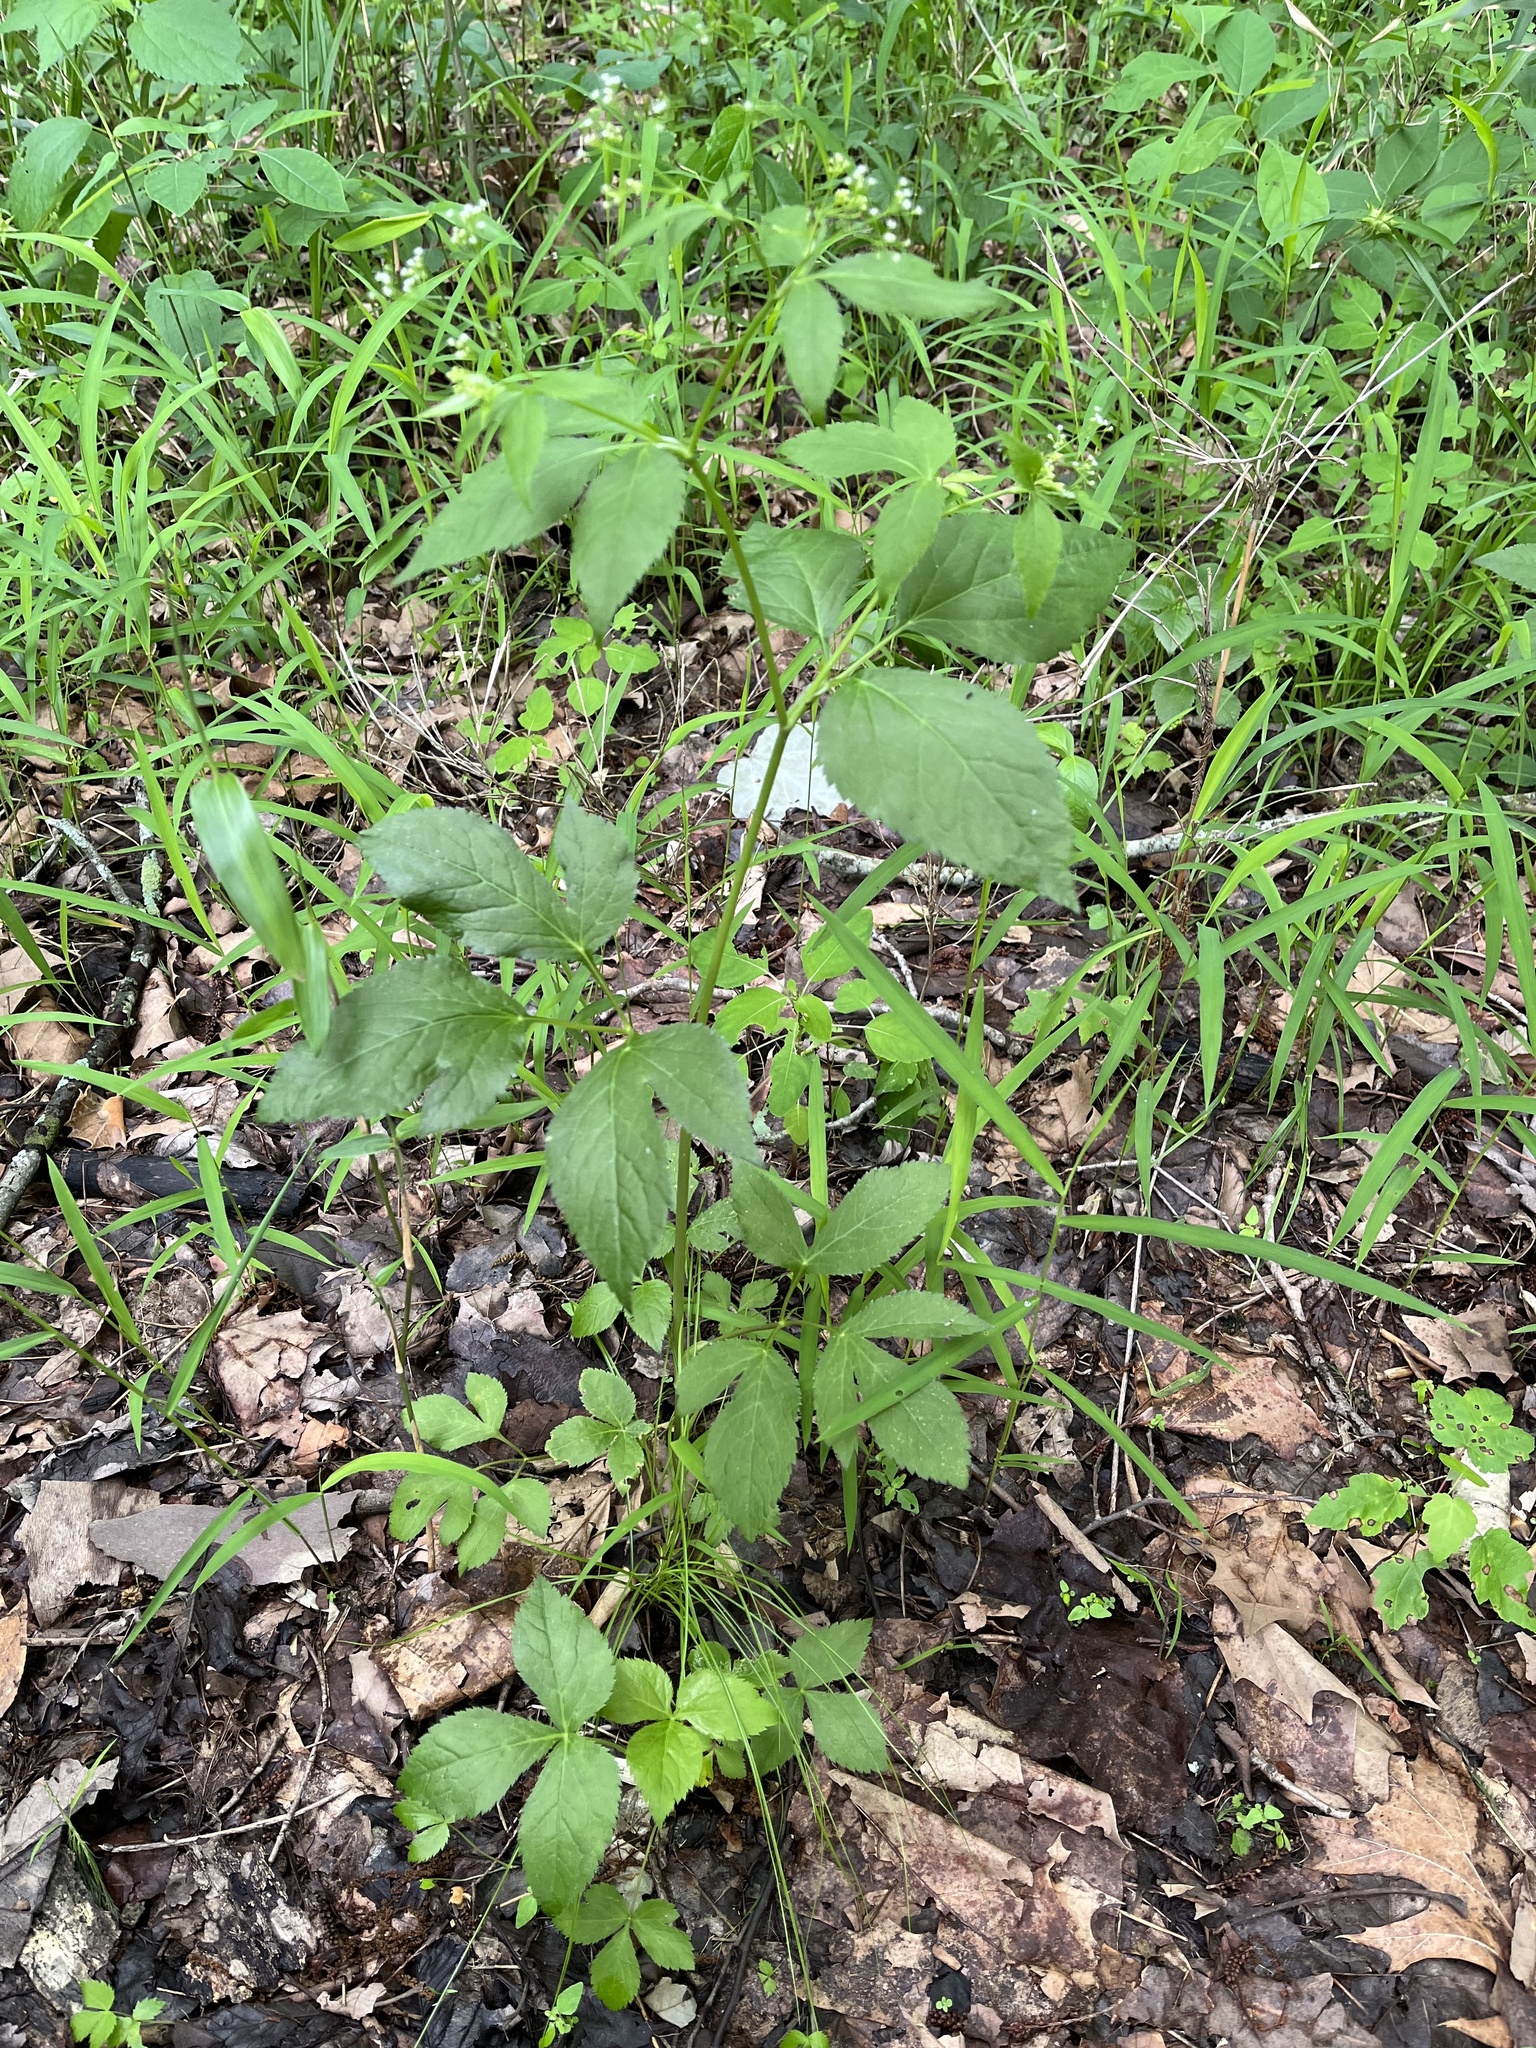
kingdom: Plantae
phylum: Tracheophyta
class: Magnoliopsida
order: Apiales
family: Apiaceae
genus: Cryptotaenia
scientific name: Cryptotaenia canadensis
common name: Honewort
